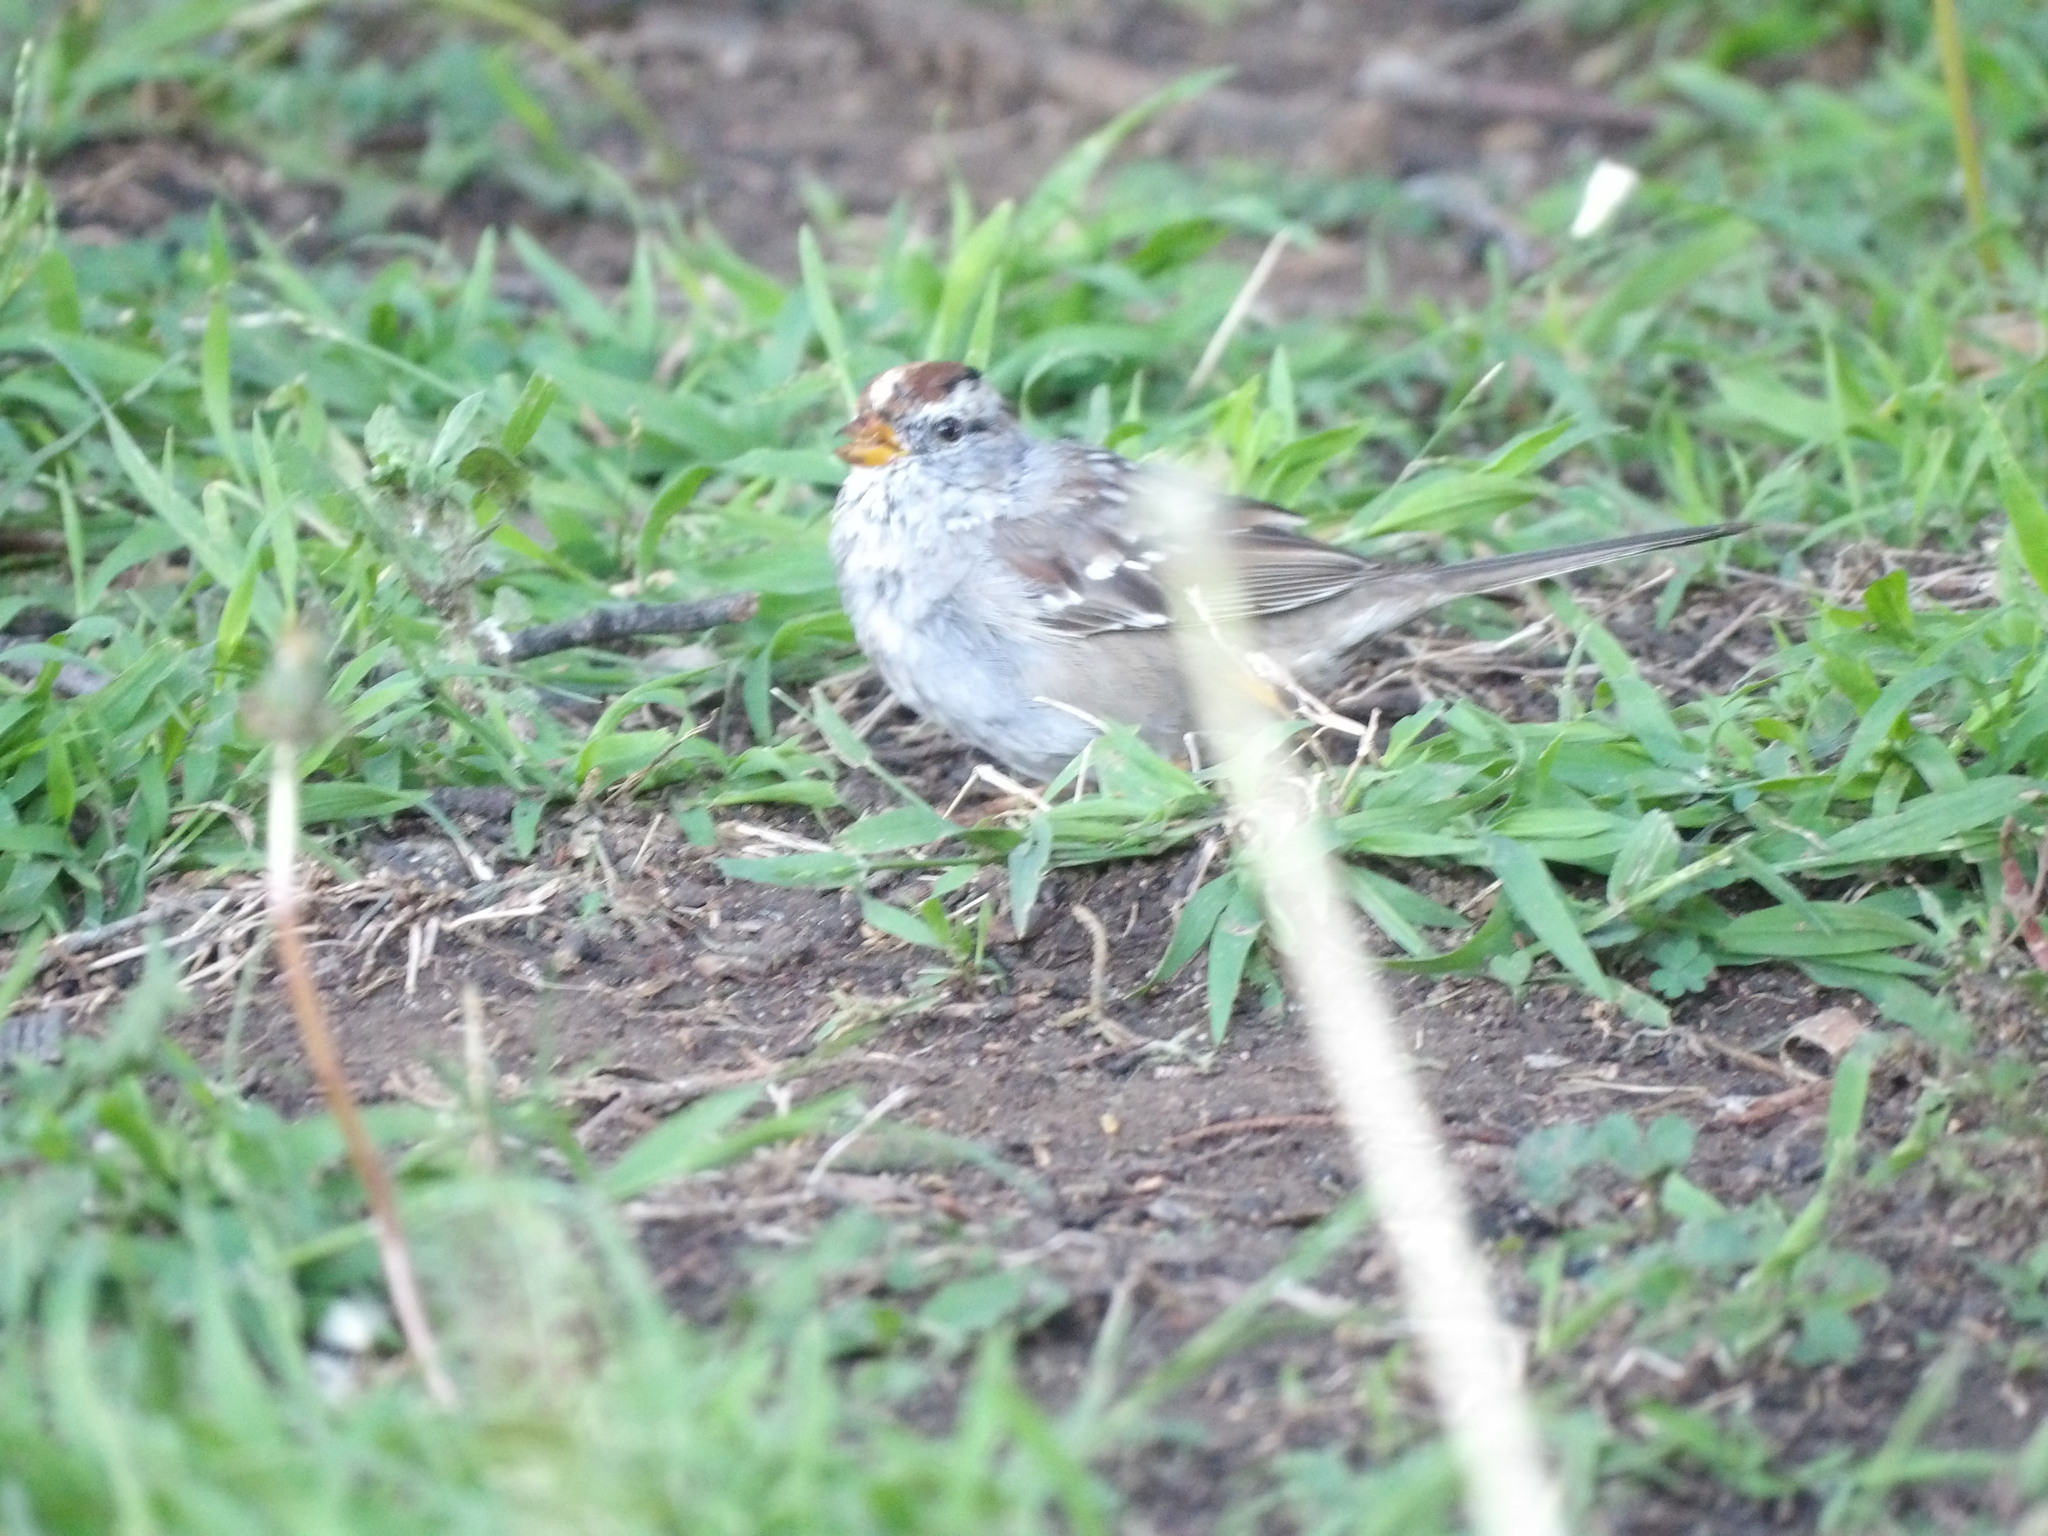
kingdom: Animalia
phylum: Chordata
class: Aves
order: Passeriformes
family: Passerellidae
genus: Zonotrichia
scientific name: Zonotrichia leucophrys
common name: White-crowned sparrow
